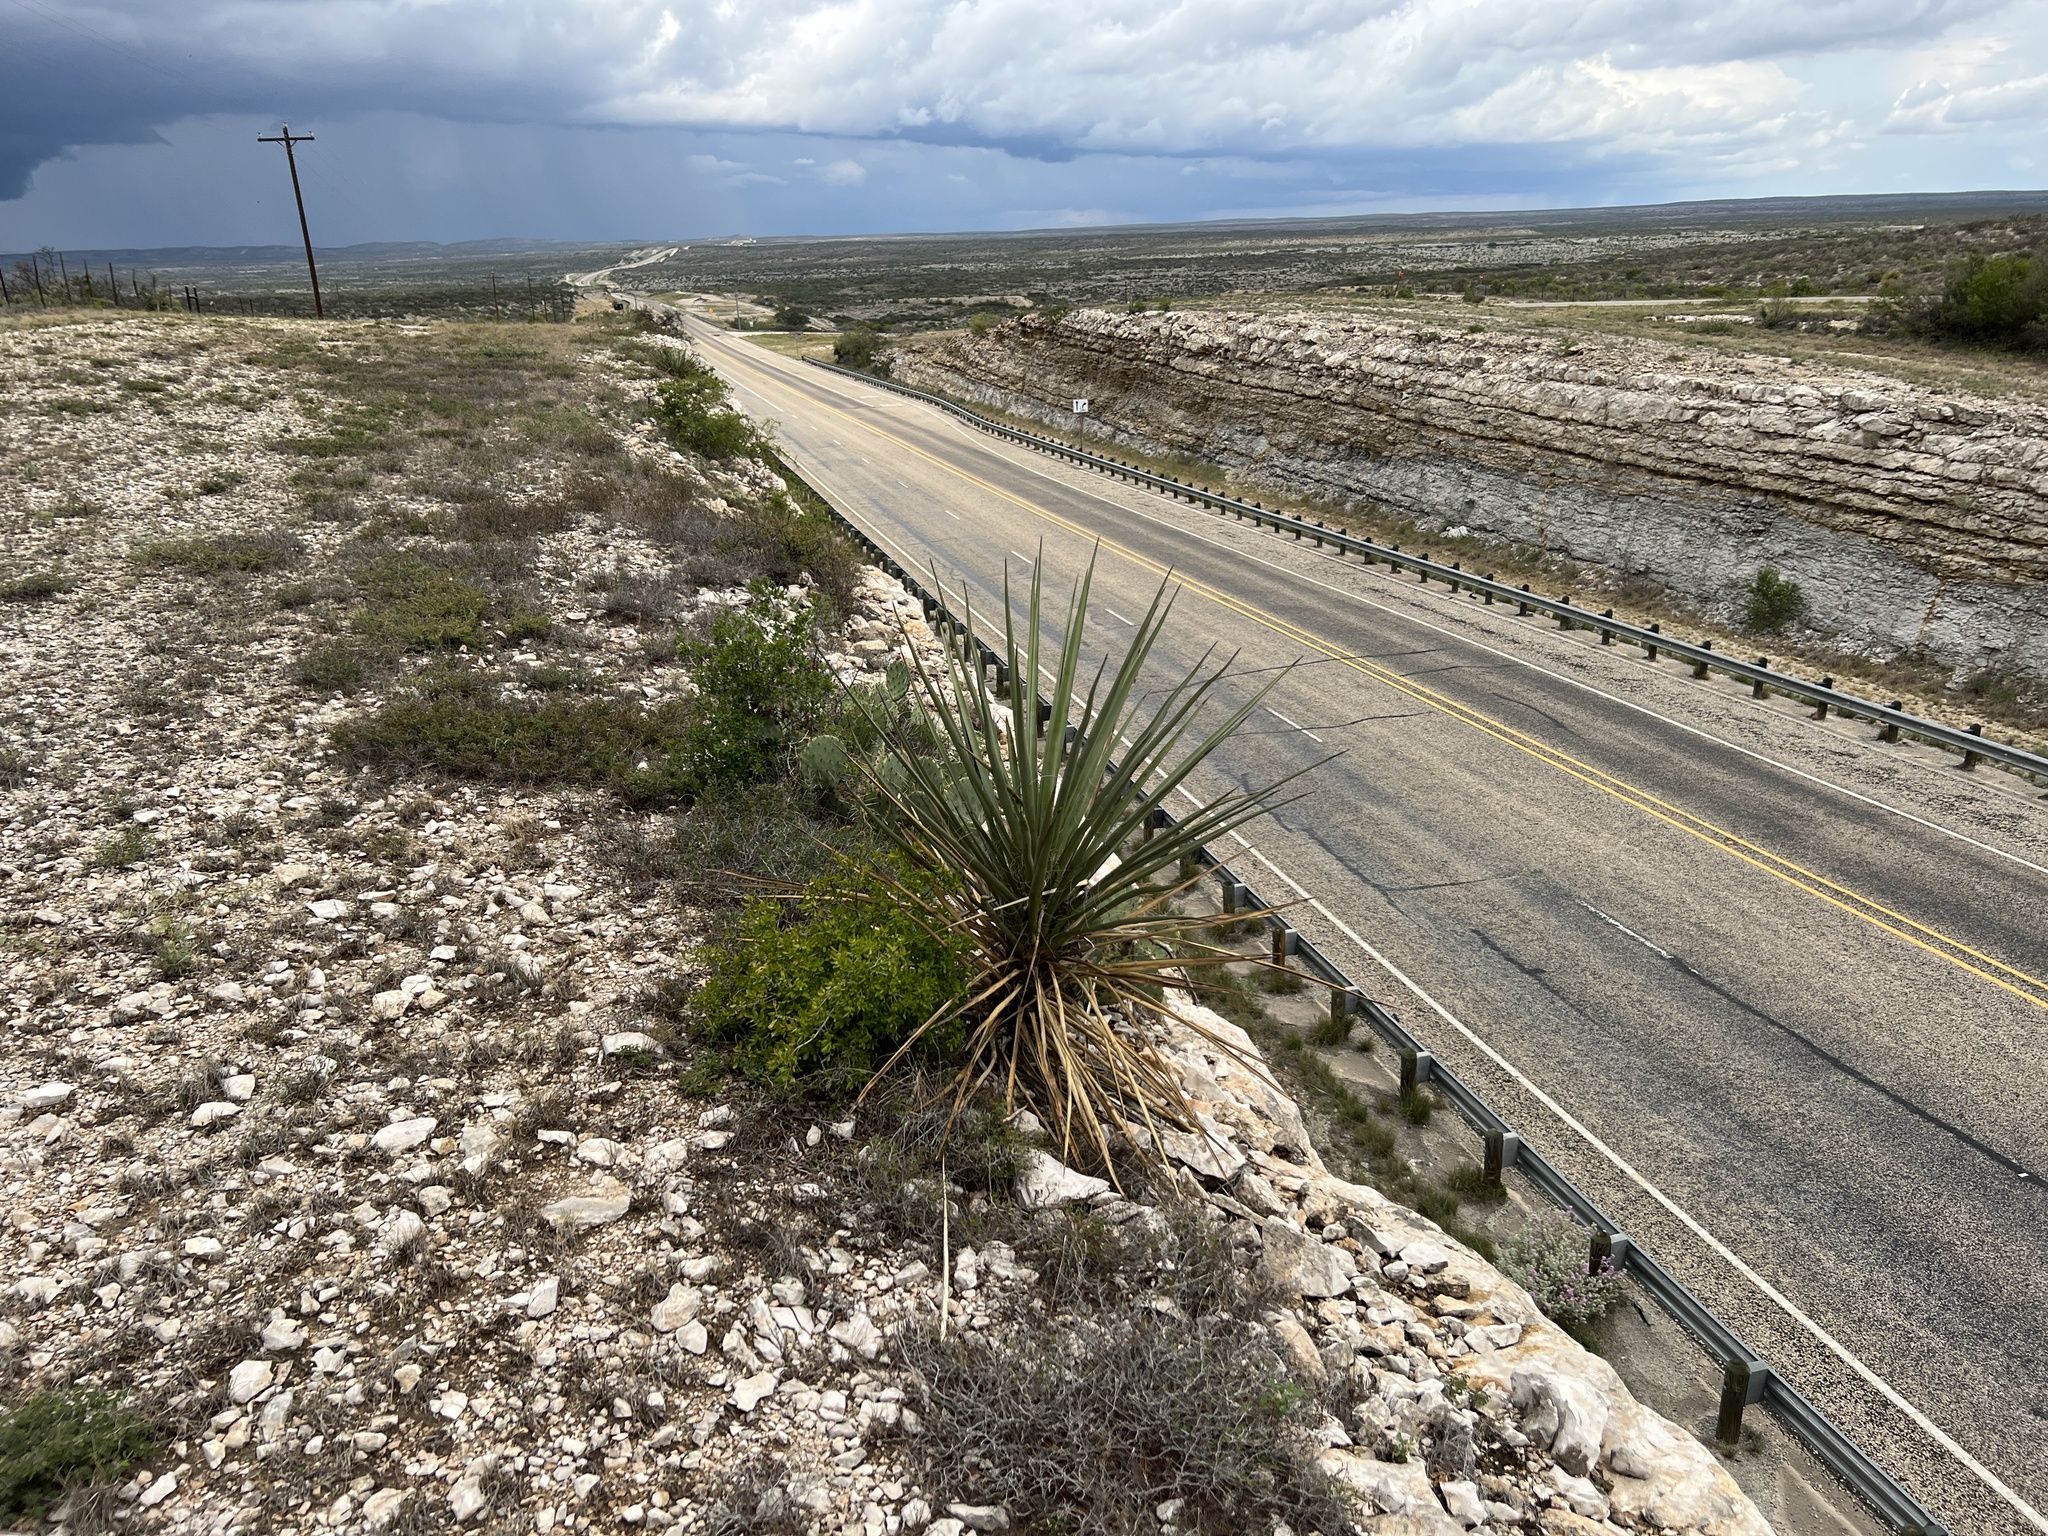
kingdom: Plantae
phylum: Tracheophyta
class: Liliopsida
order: Asparagales
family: Asparagaceae
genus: Yucca
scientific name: Yucca treculiana
